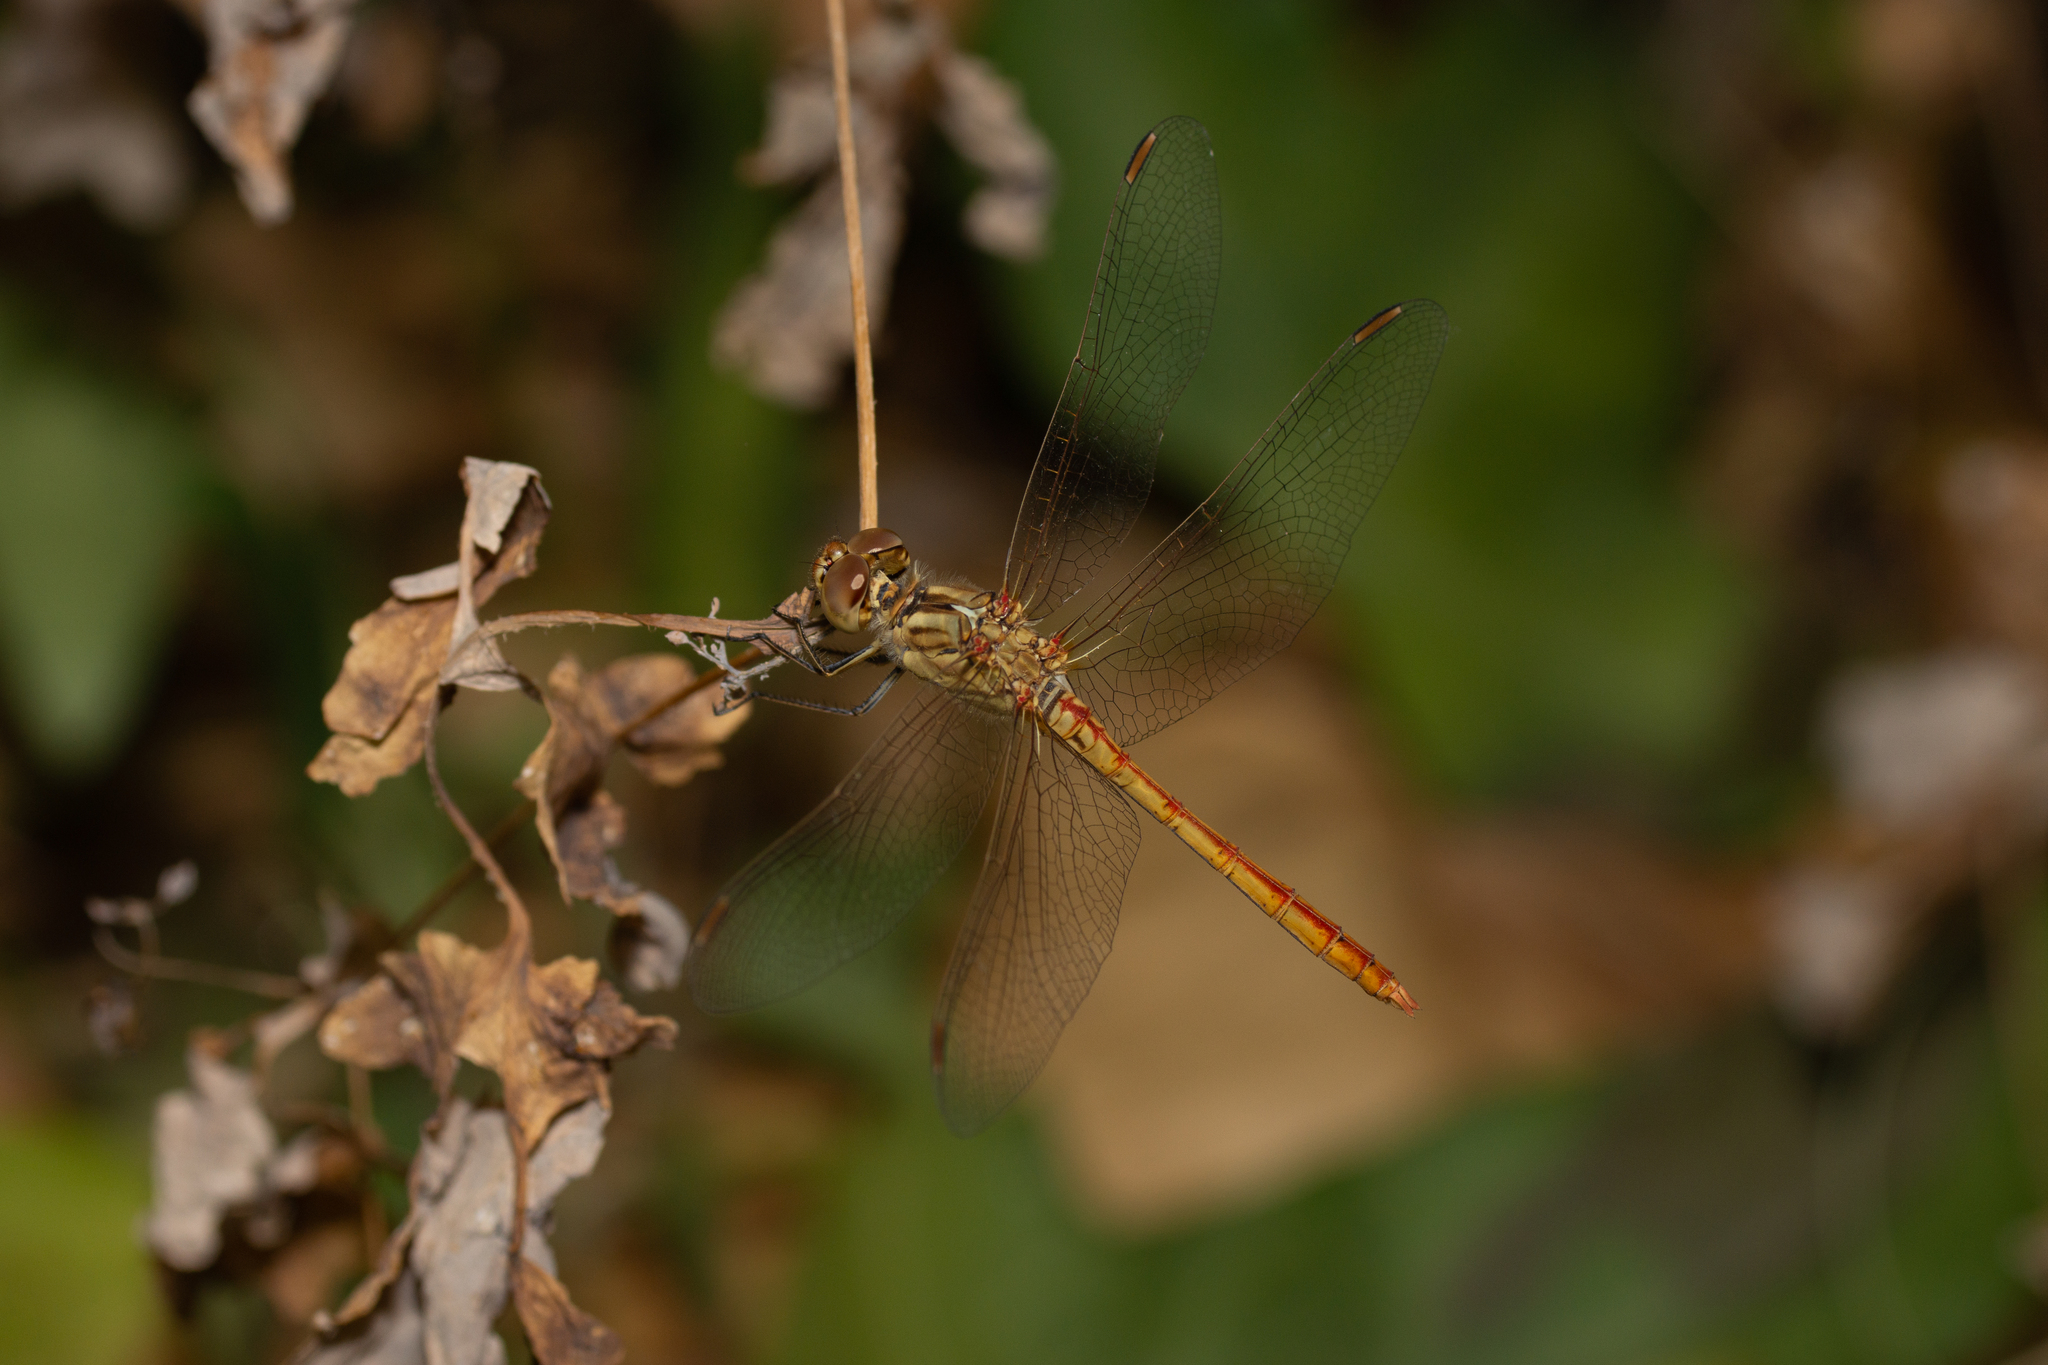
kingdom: Animalia
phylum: Arthropoda
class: Insecta
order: Odonata
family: Libellulidae
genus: Sympetrum
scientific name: Sympetrum meridionale
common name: Southern darter
